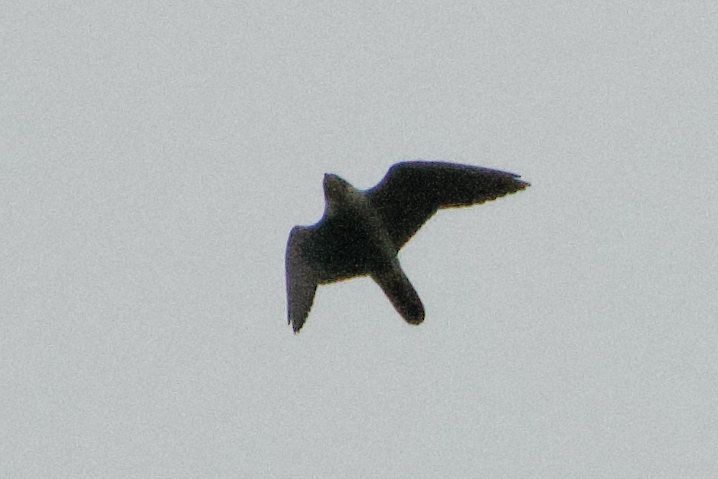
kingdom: Animalia
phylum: Chordata
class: Aves
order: Falconiformes
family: Falconidae
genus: Falco
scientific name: Falco peregrinus
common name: Peregrine falcon
